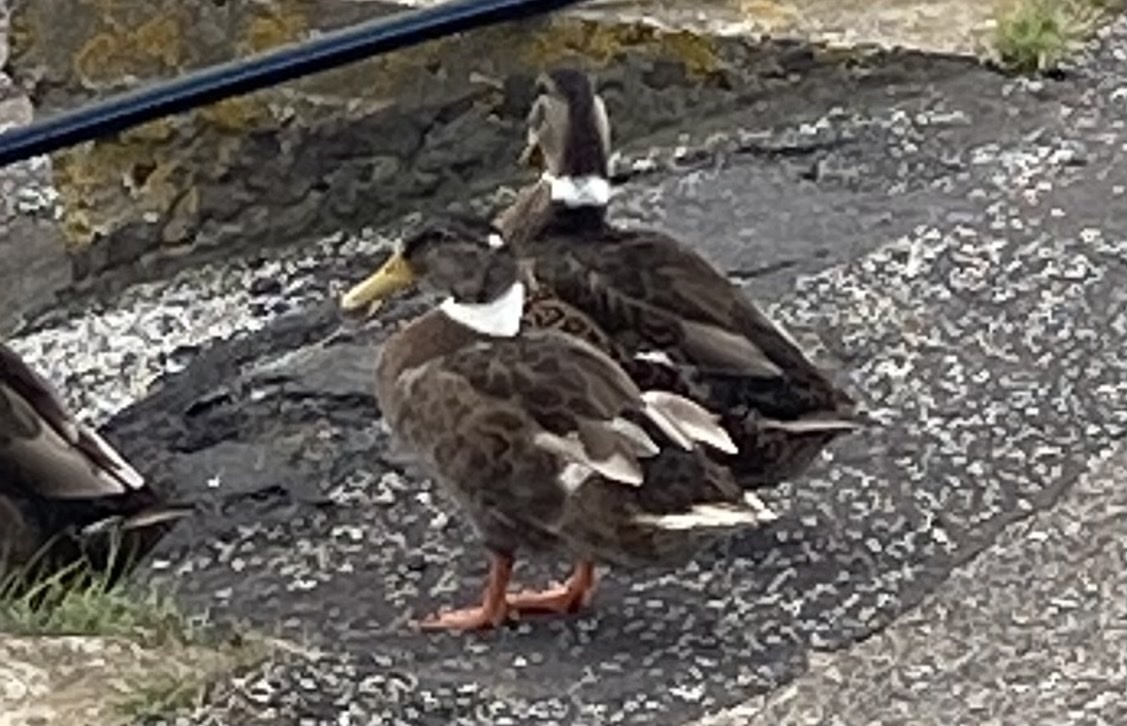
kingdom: Animalia
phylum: Chordata
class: Aves
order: Anseriformes
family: Anatidae
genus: Anas
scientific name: Anas platyrhynchos
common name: Mallard
